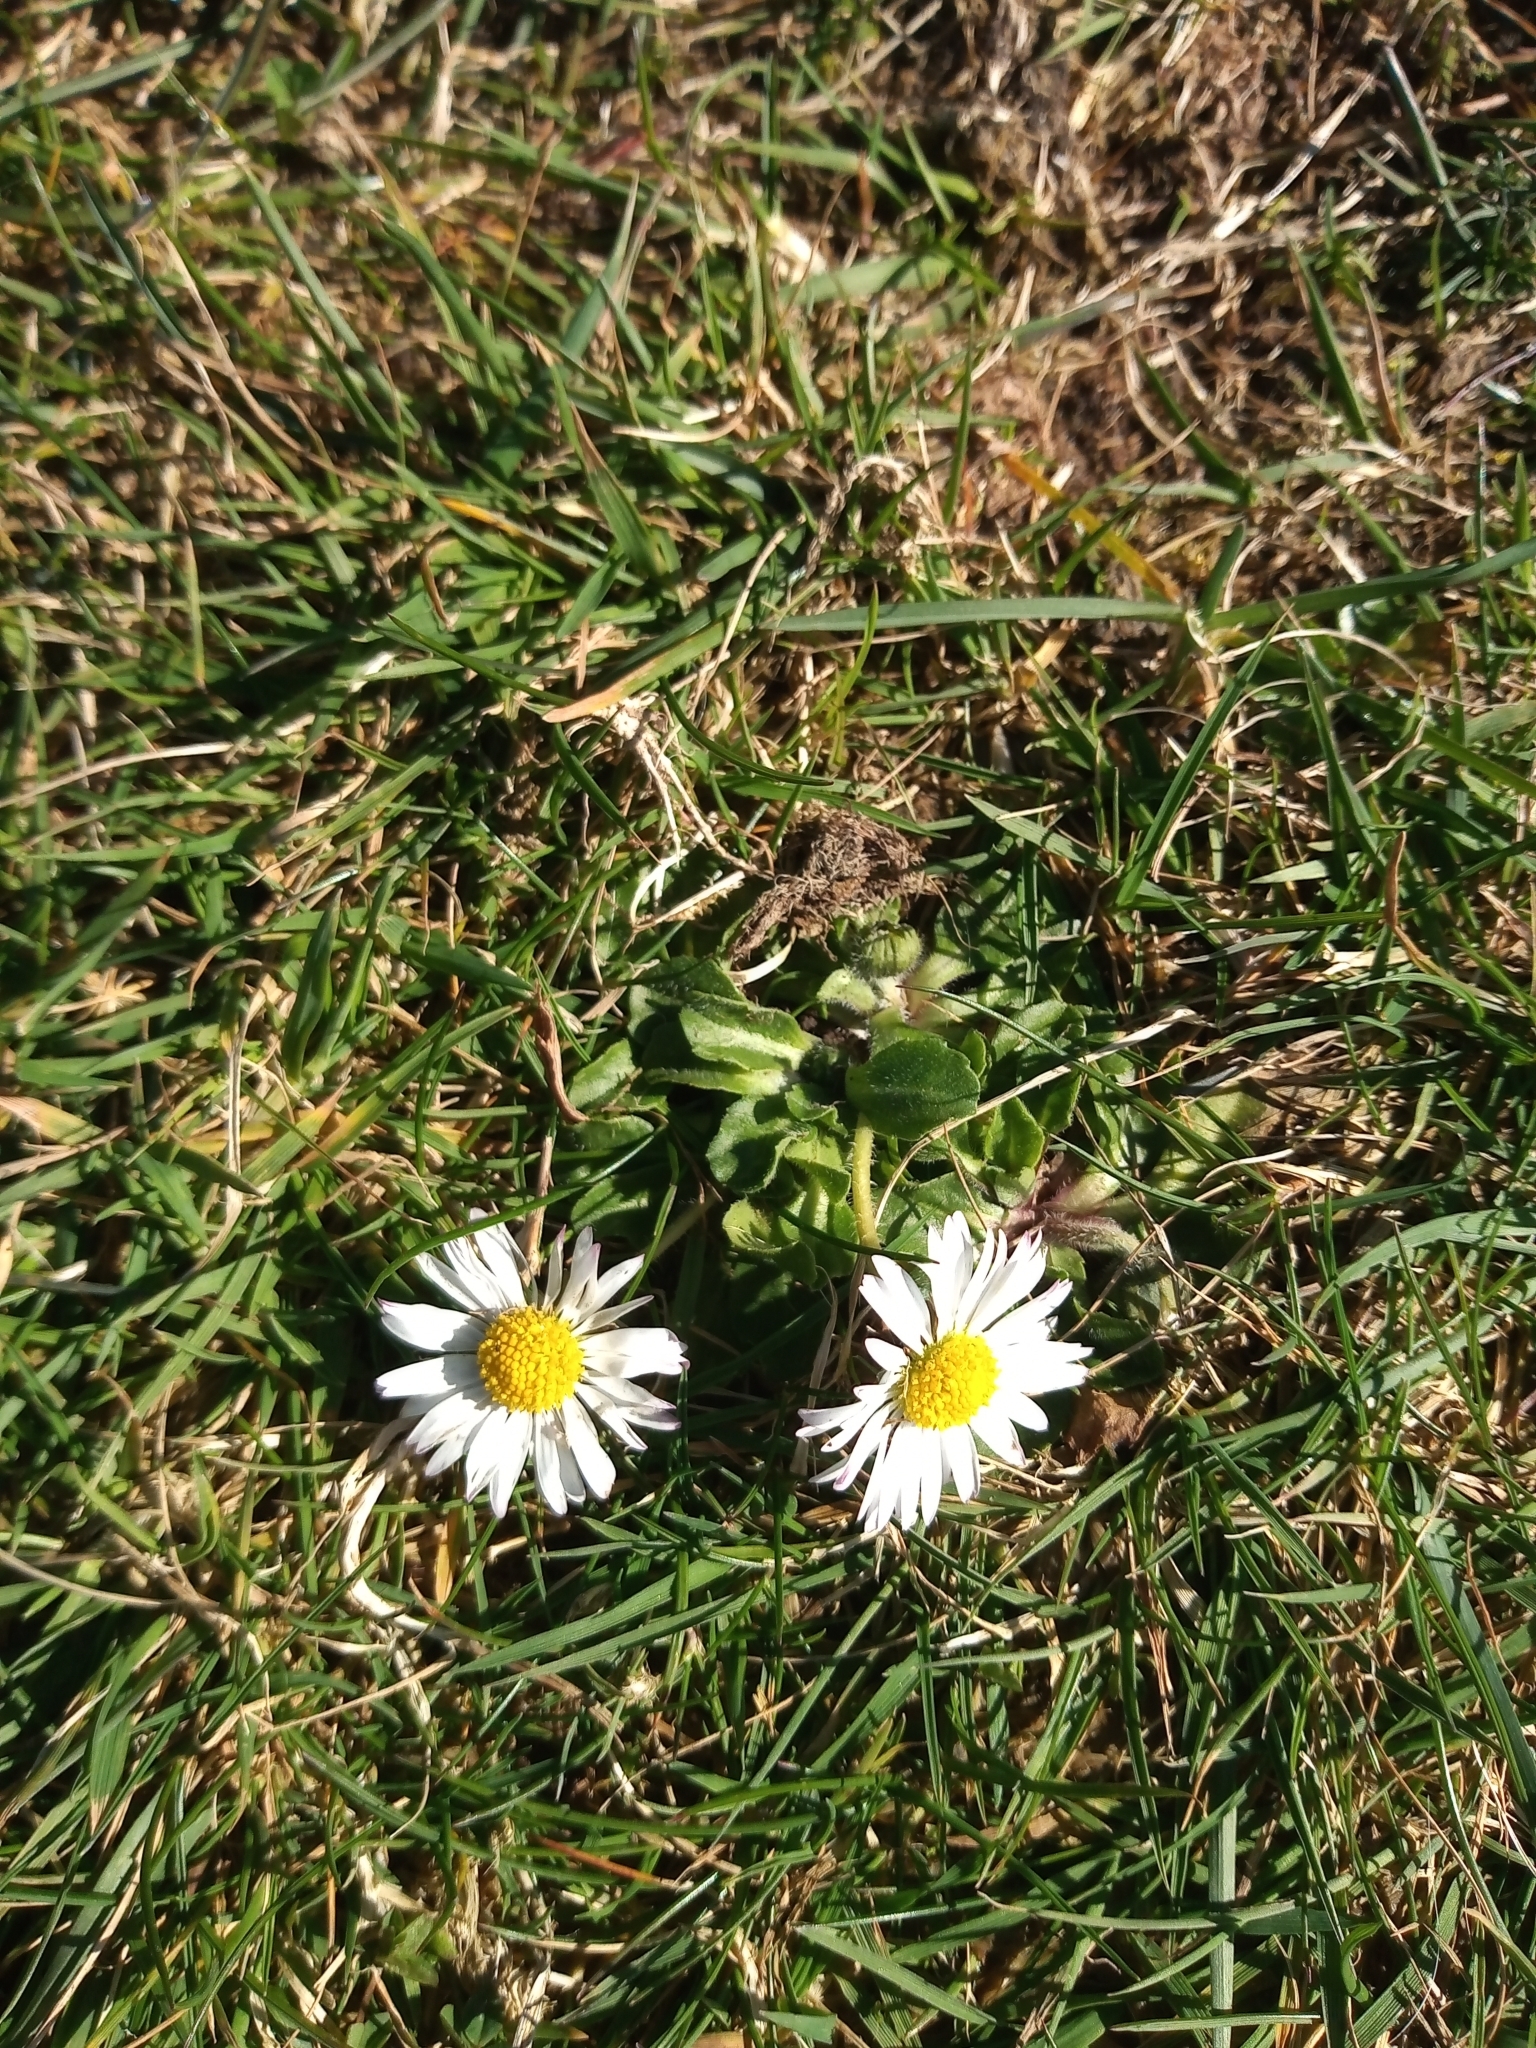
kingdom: Plantae
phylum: Tracheophyta
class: Magnoliopsida
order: Asterales
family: Asteraceae
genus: Bellis
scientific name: Bellis perennis
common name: Lawndaisy
